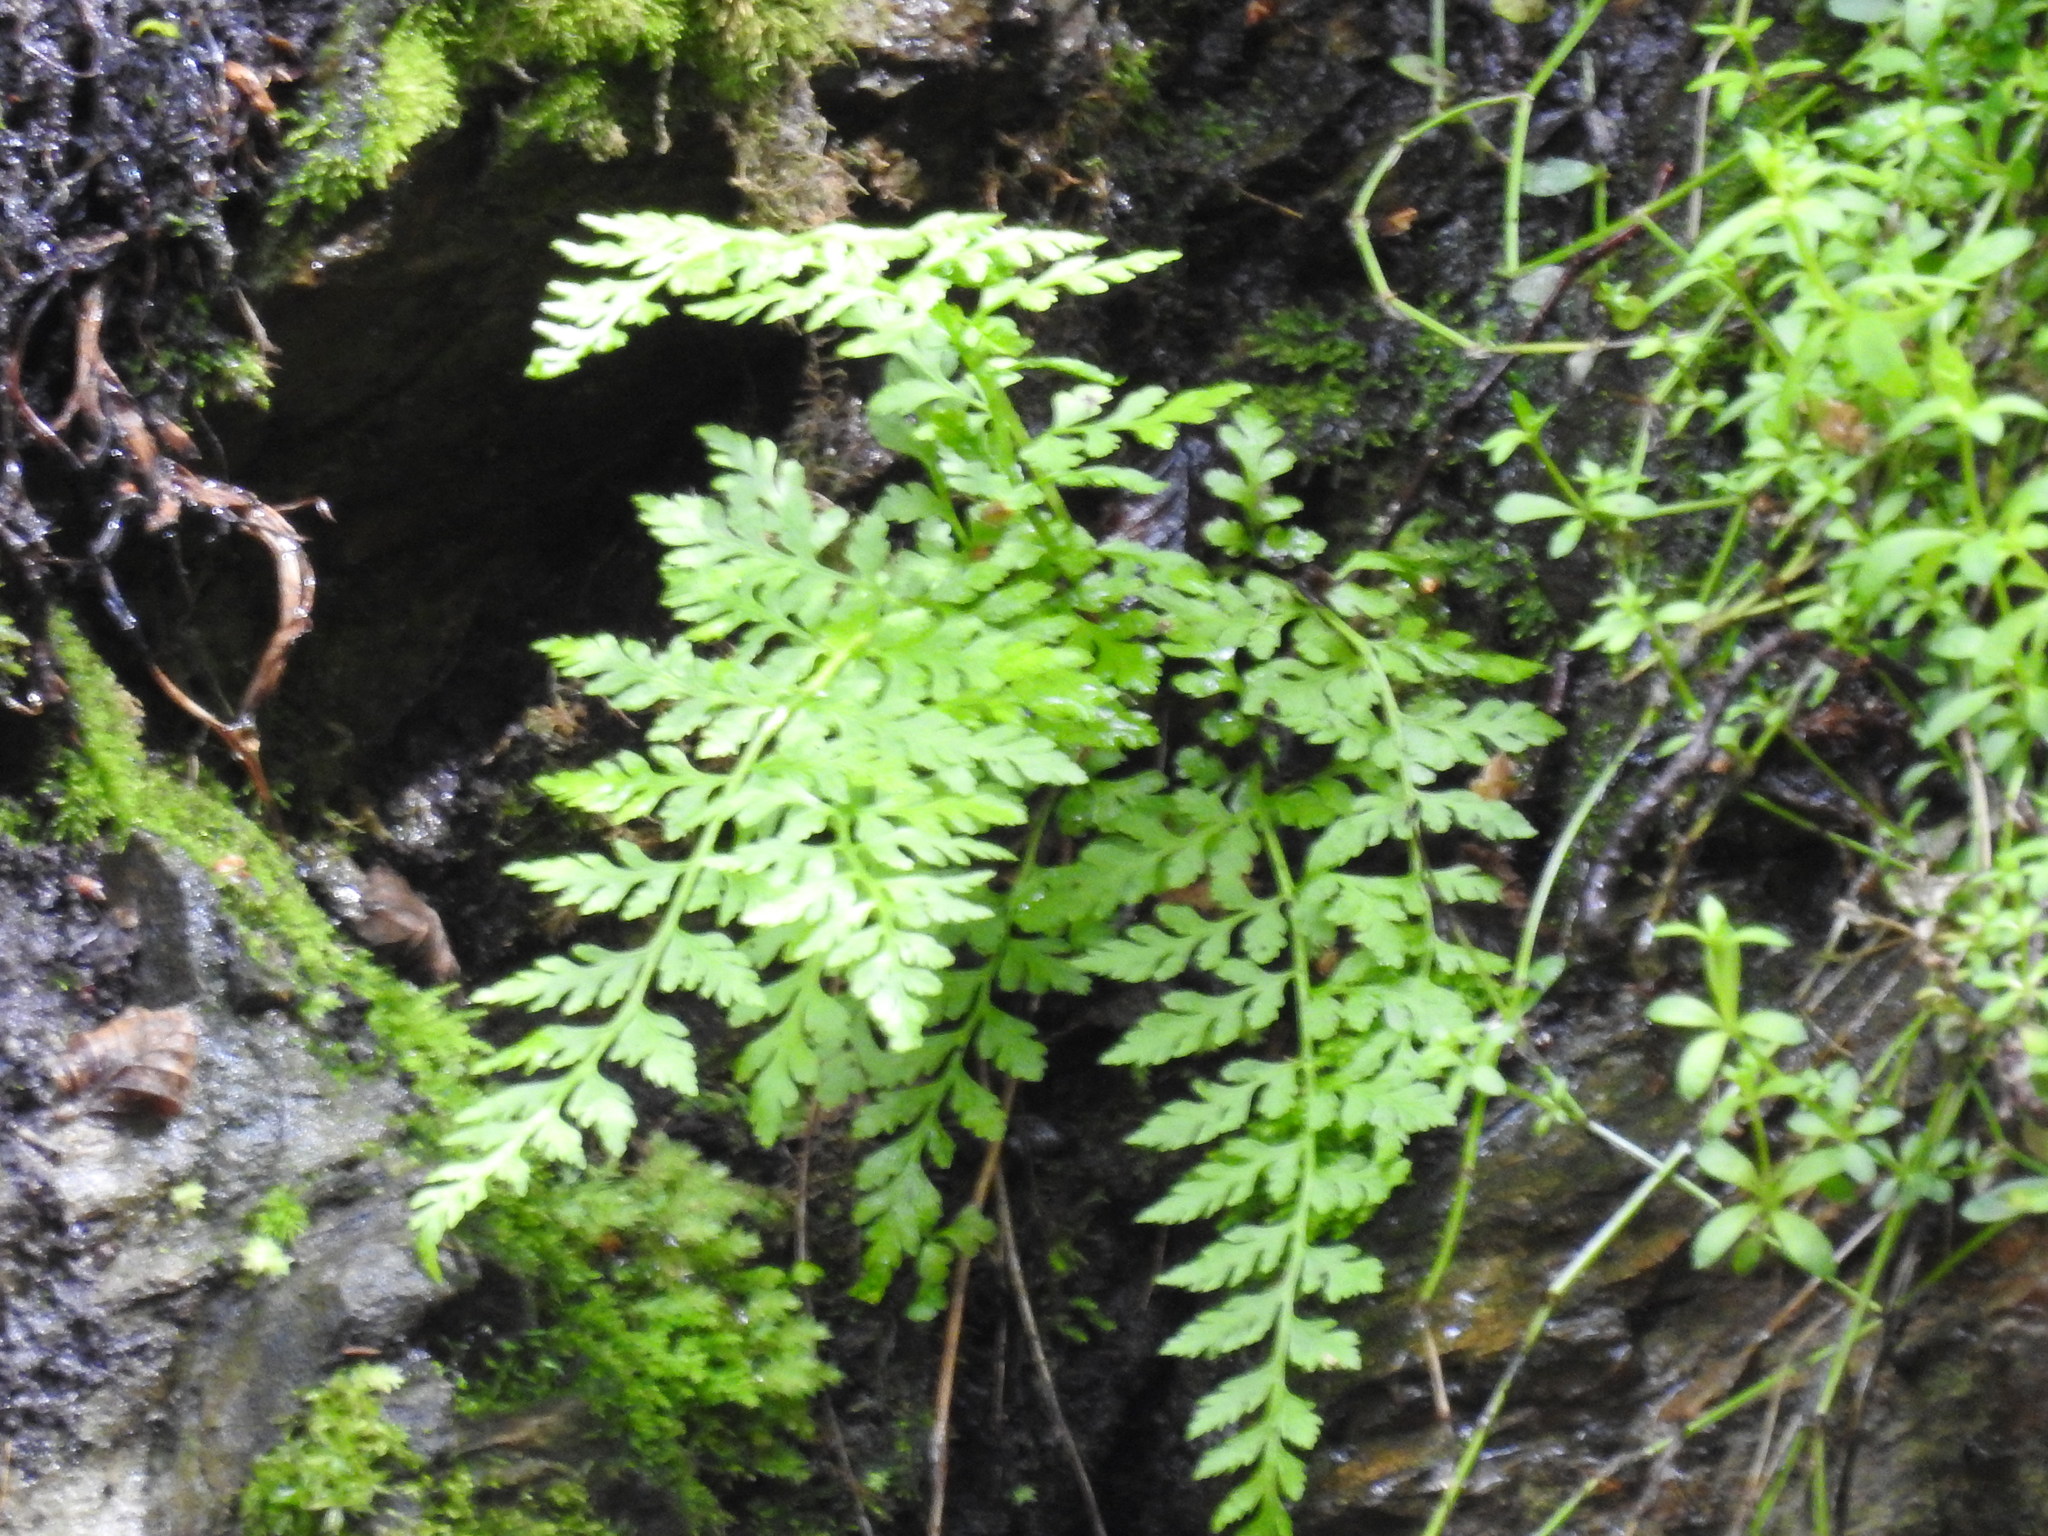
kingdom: Plantae
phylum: Tracheophyta
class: Polypodiopsida
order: Polypodiales
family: Cystopteridaceae
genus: Cystopteris
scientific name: Cystopteris fragilis
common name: Brittle bladder fern
